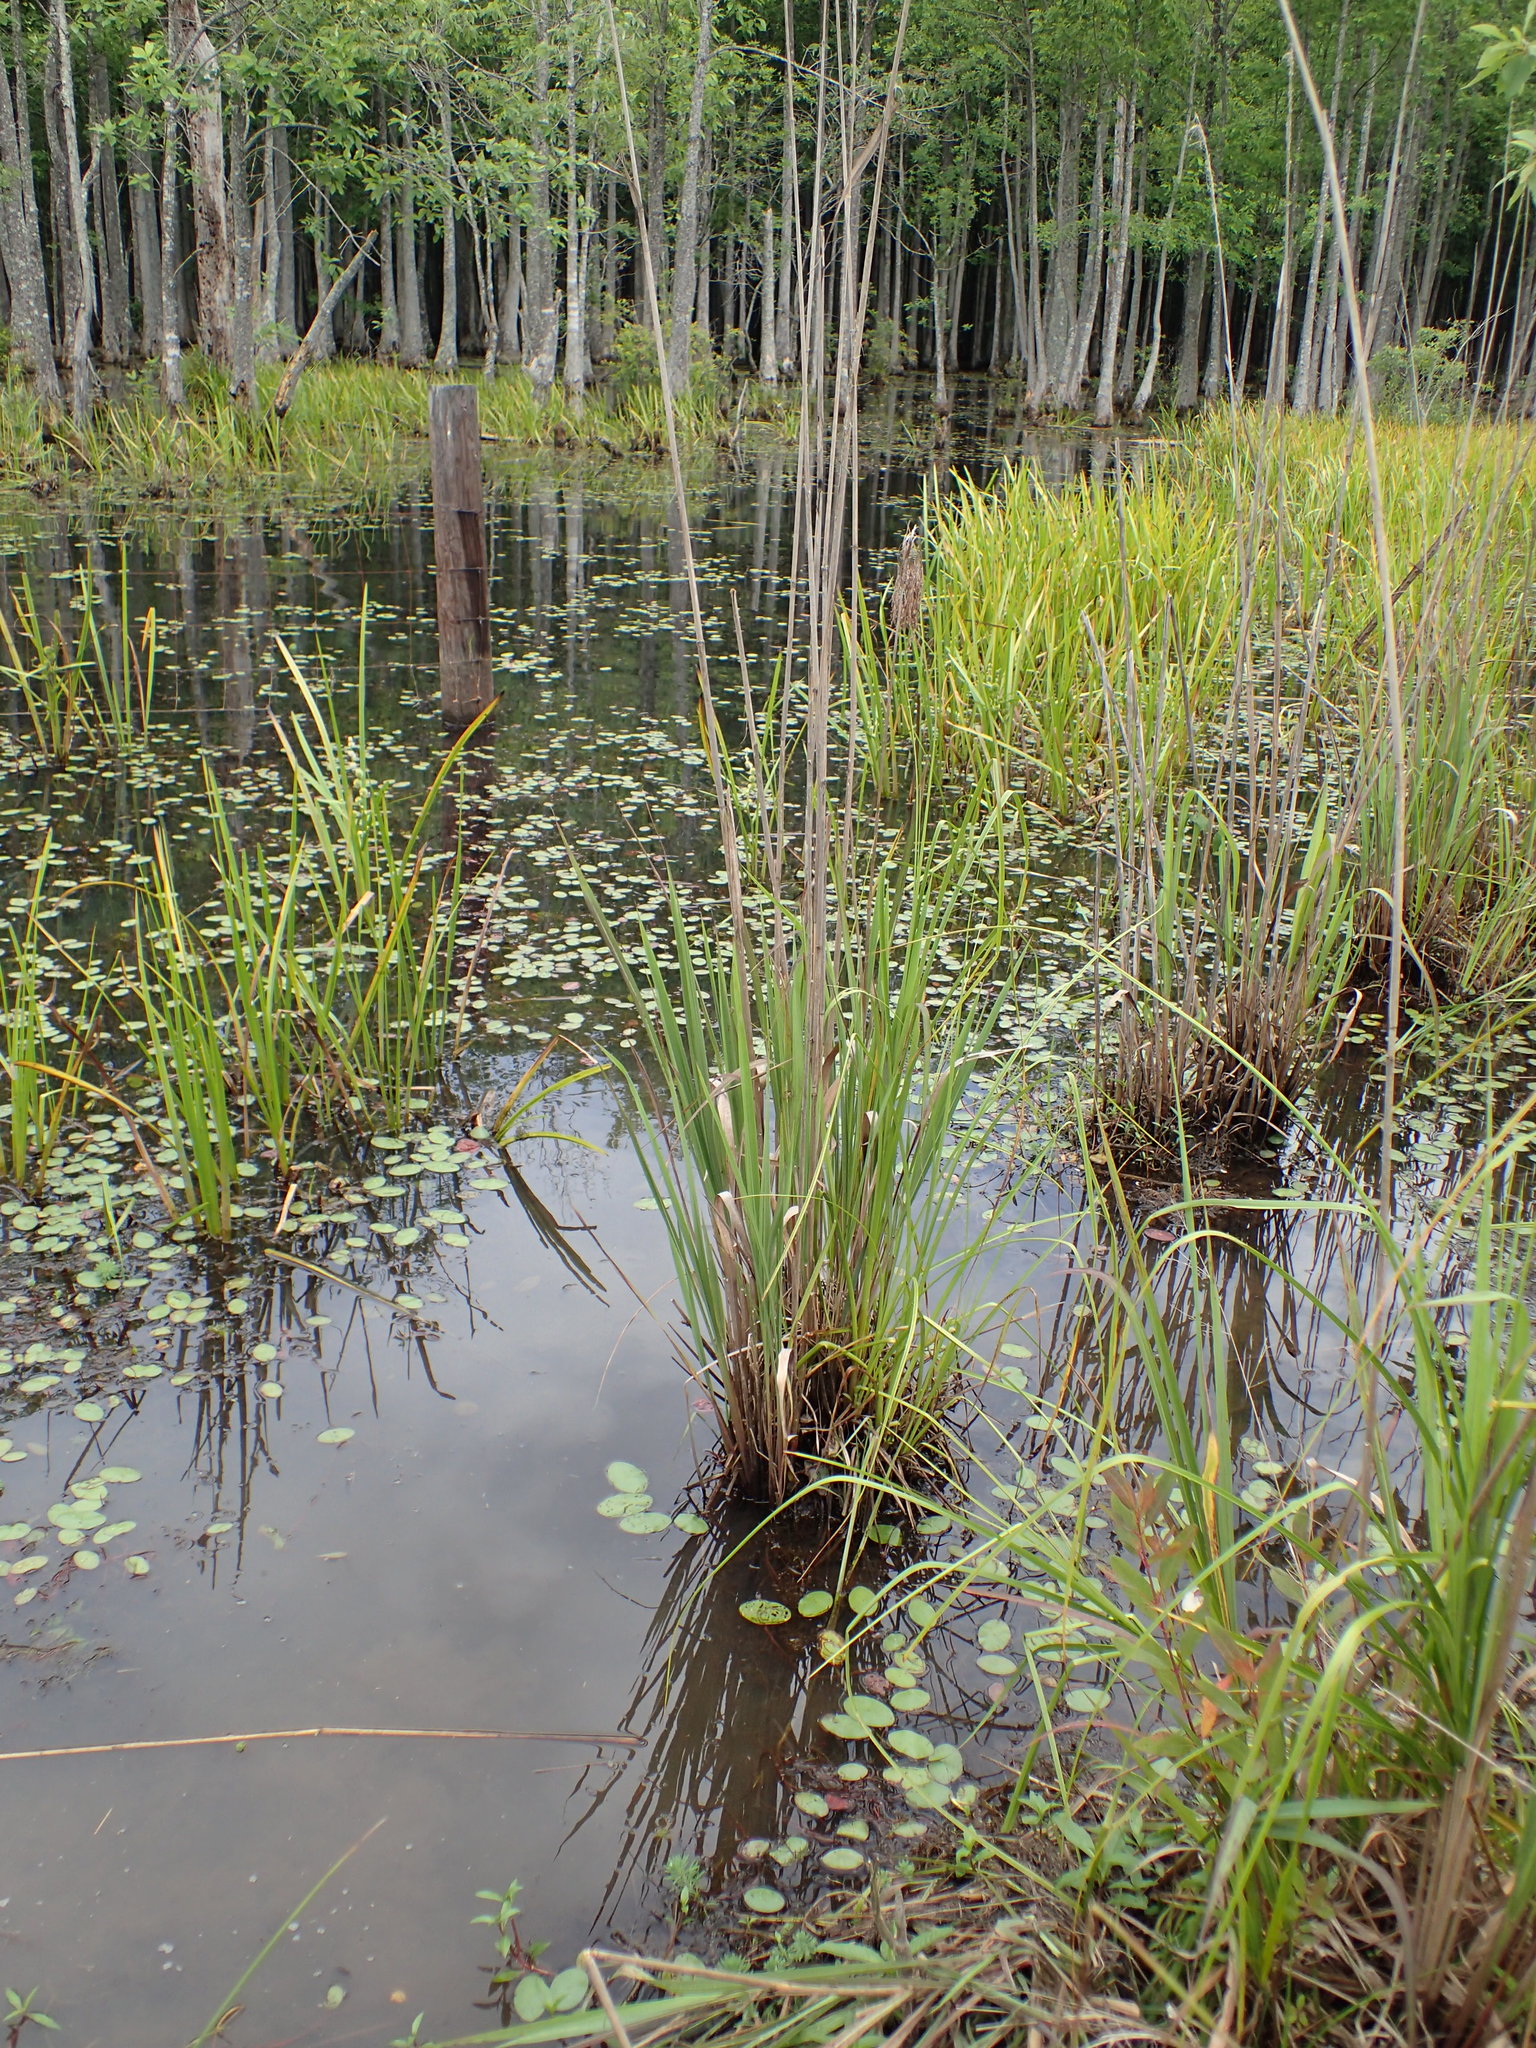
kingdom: Plantae
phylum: Tracheophyta
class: Liliopsida
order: Poales
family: Poaceae
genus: Erianthus
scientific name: Erianthus giganteus
